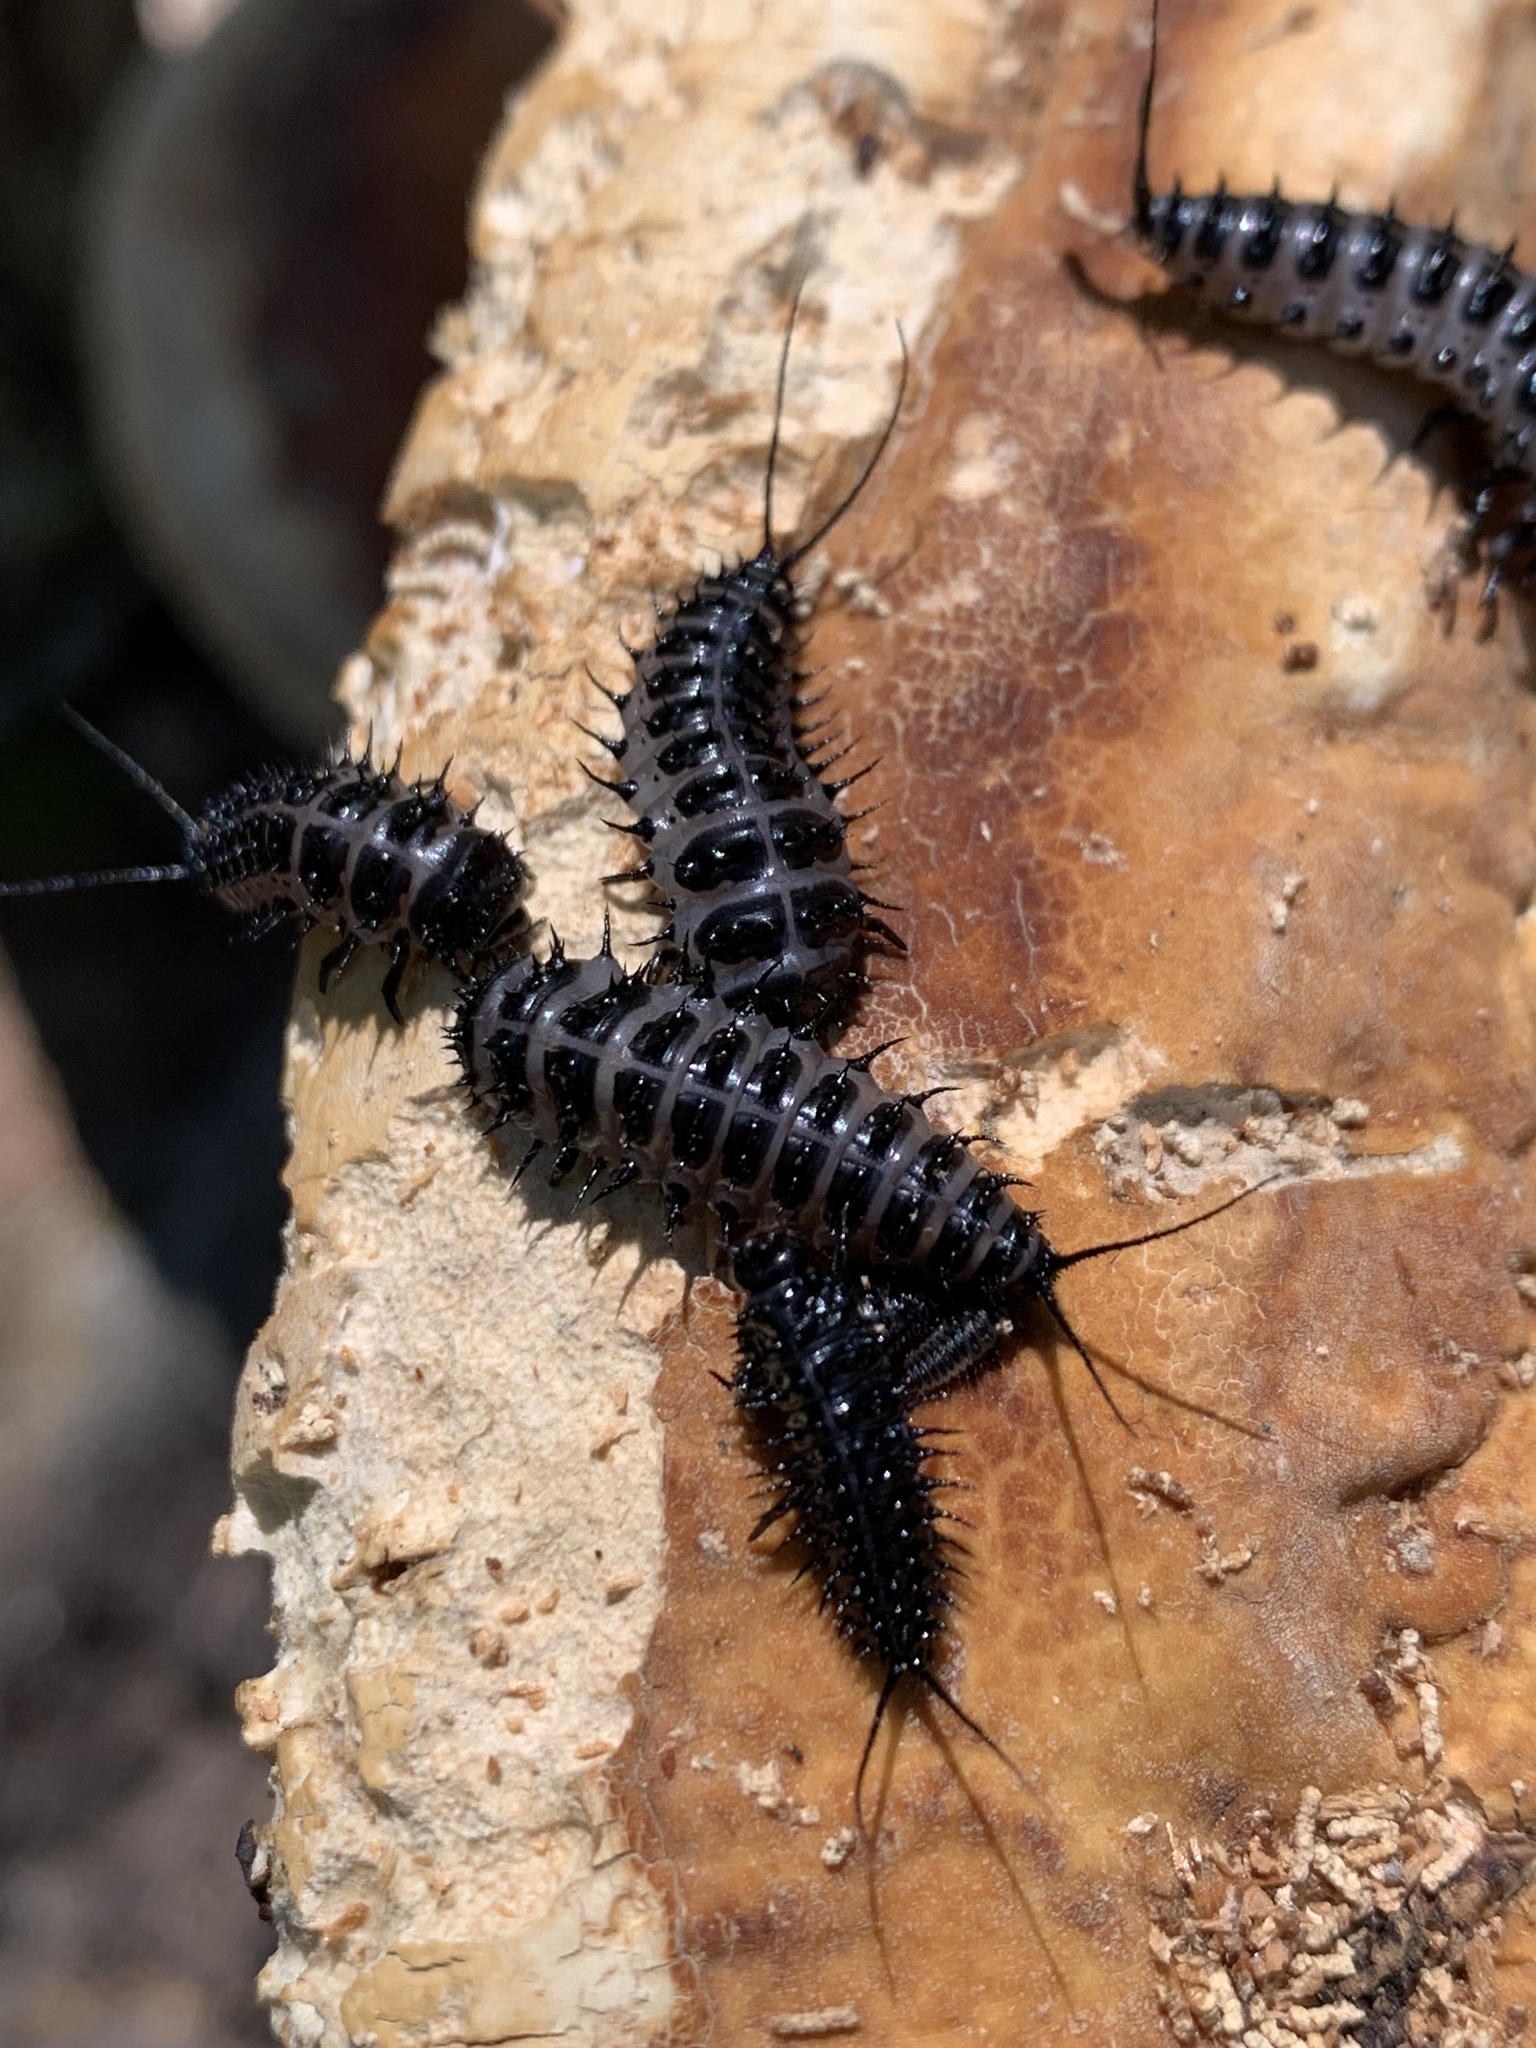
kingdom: Animalia
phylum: Arthropoda
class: Insecta
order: Coleoptera
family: Erotylidae
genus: Gibbifer
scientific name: Gibbifer californicus
